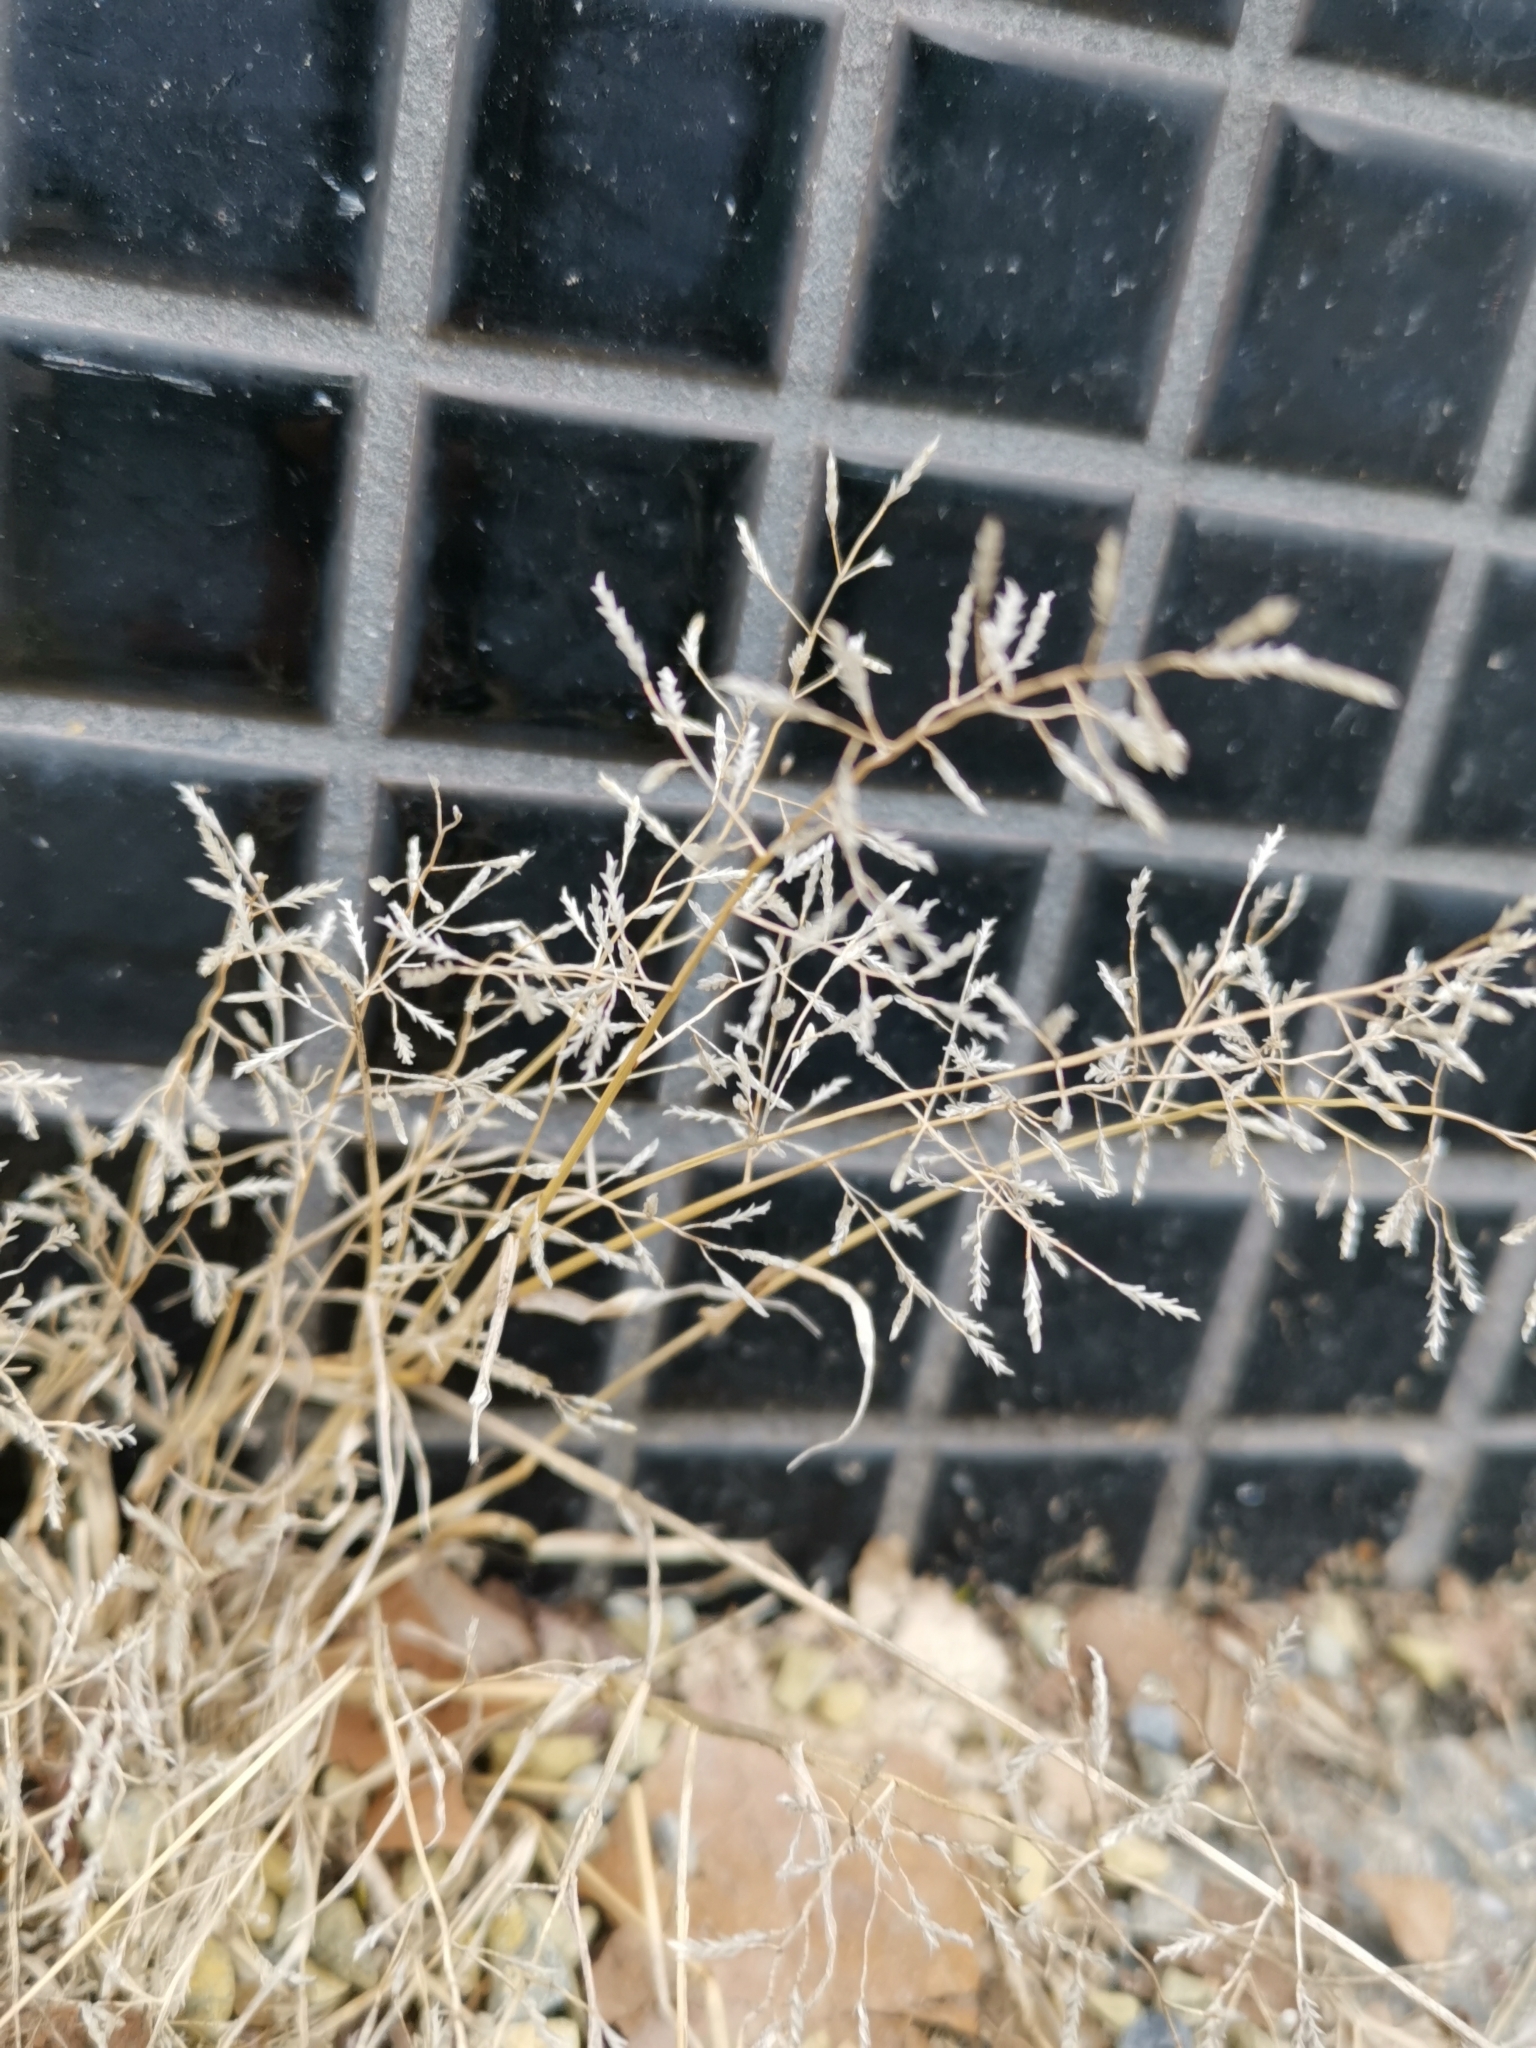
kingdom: Plantae
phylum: Tracheophyta
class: Liliopsida
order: Poales
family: Poaceae
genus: Eragrostis
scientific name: Eragrostis minor
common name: Small love-grass
